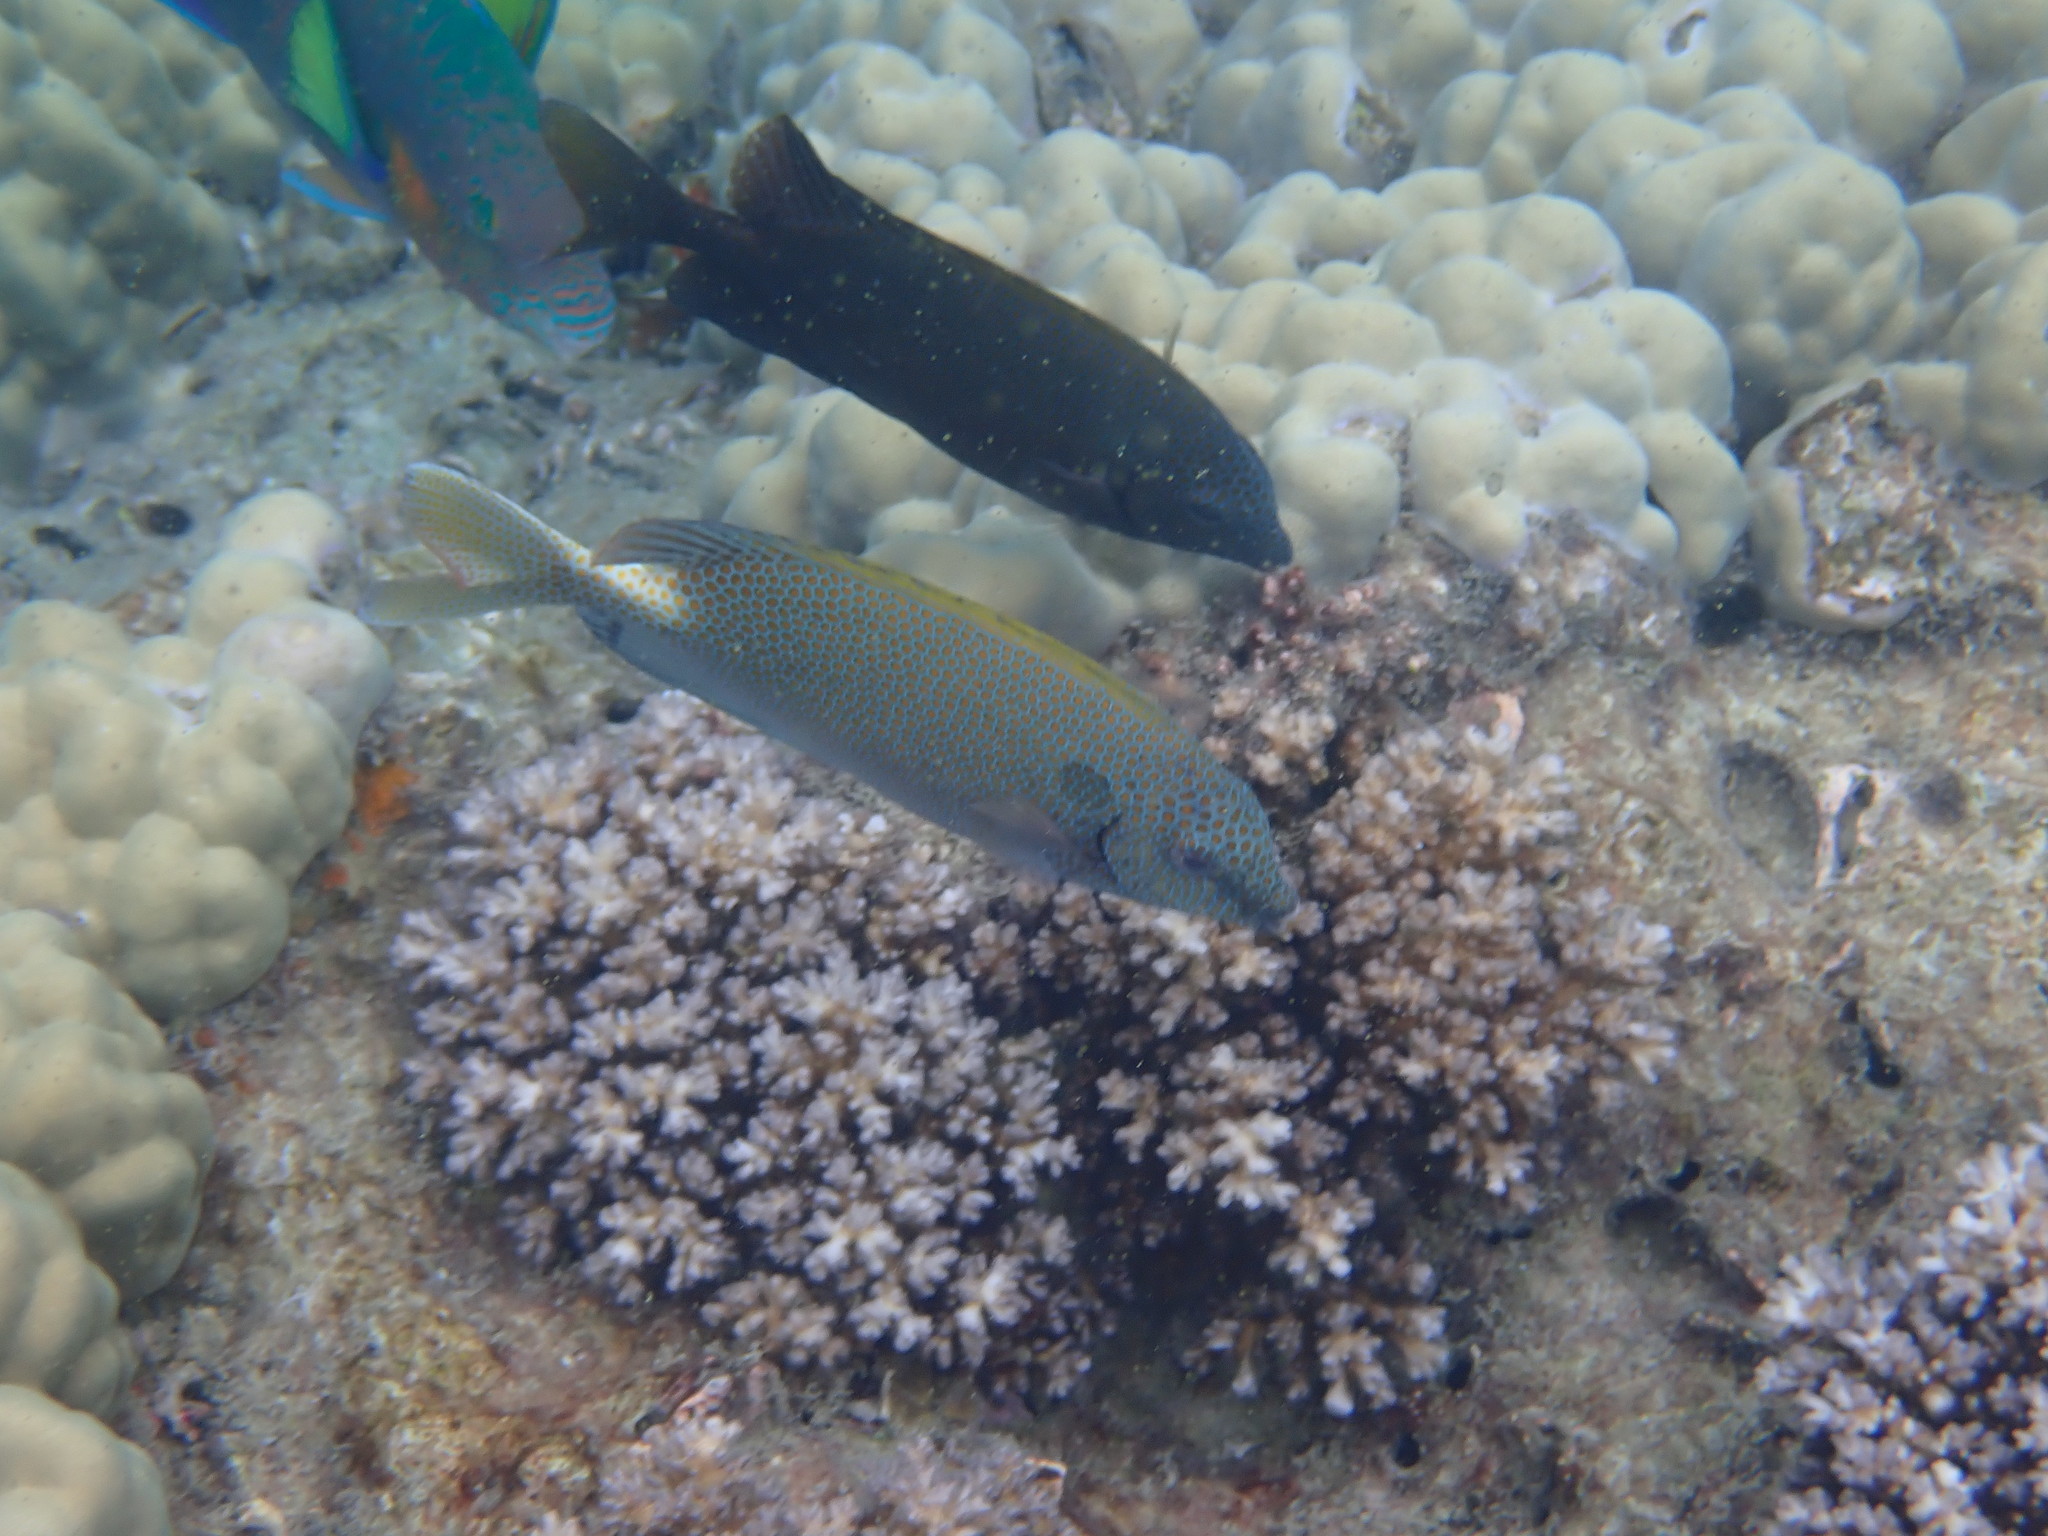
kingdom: Animalia
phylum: Chordata
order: Perciformes
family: Siganidae
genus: Siganus
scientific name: Siganus punctatus
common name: Gold-spotted rabbitfish
